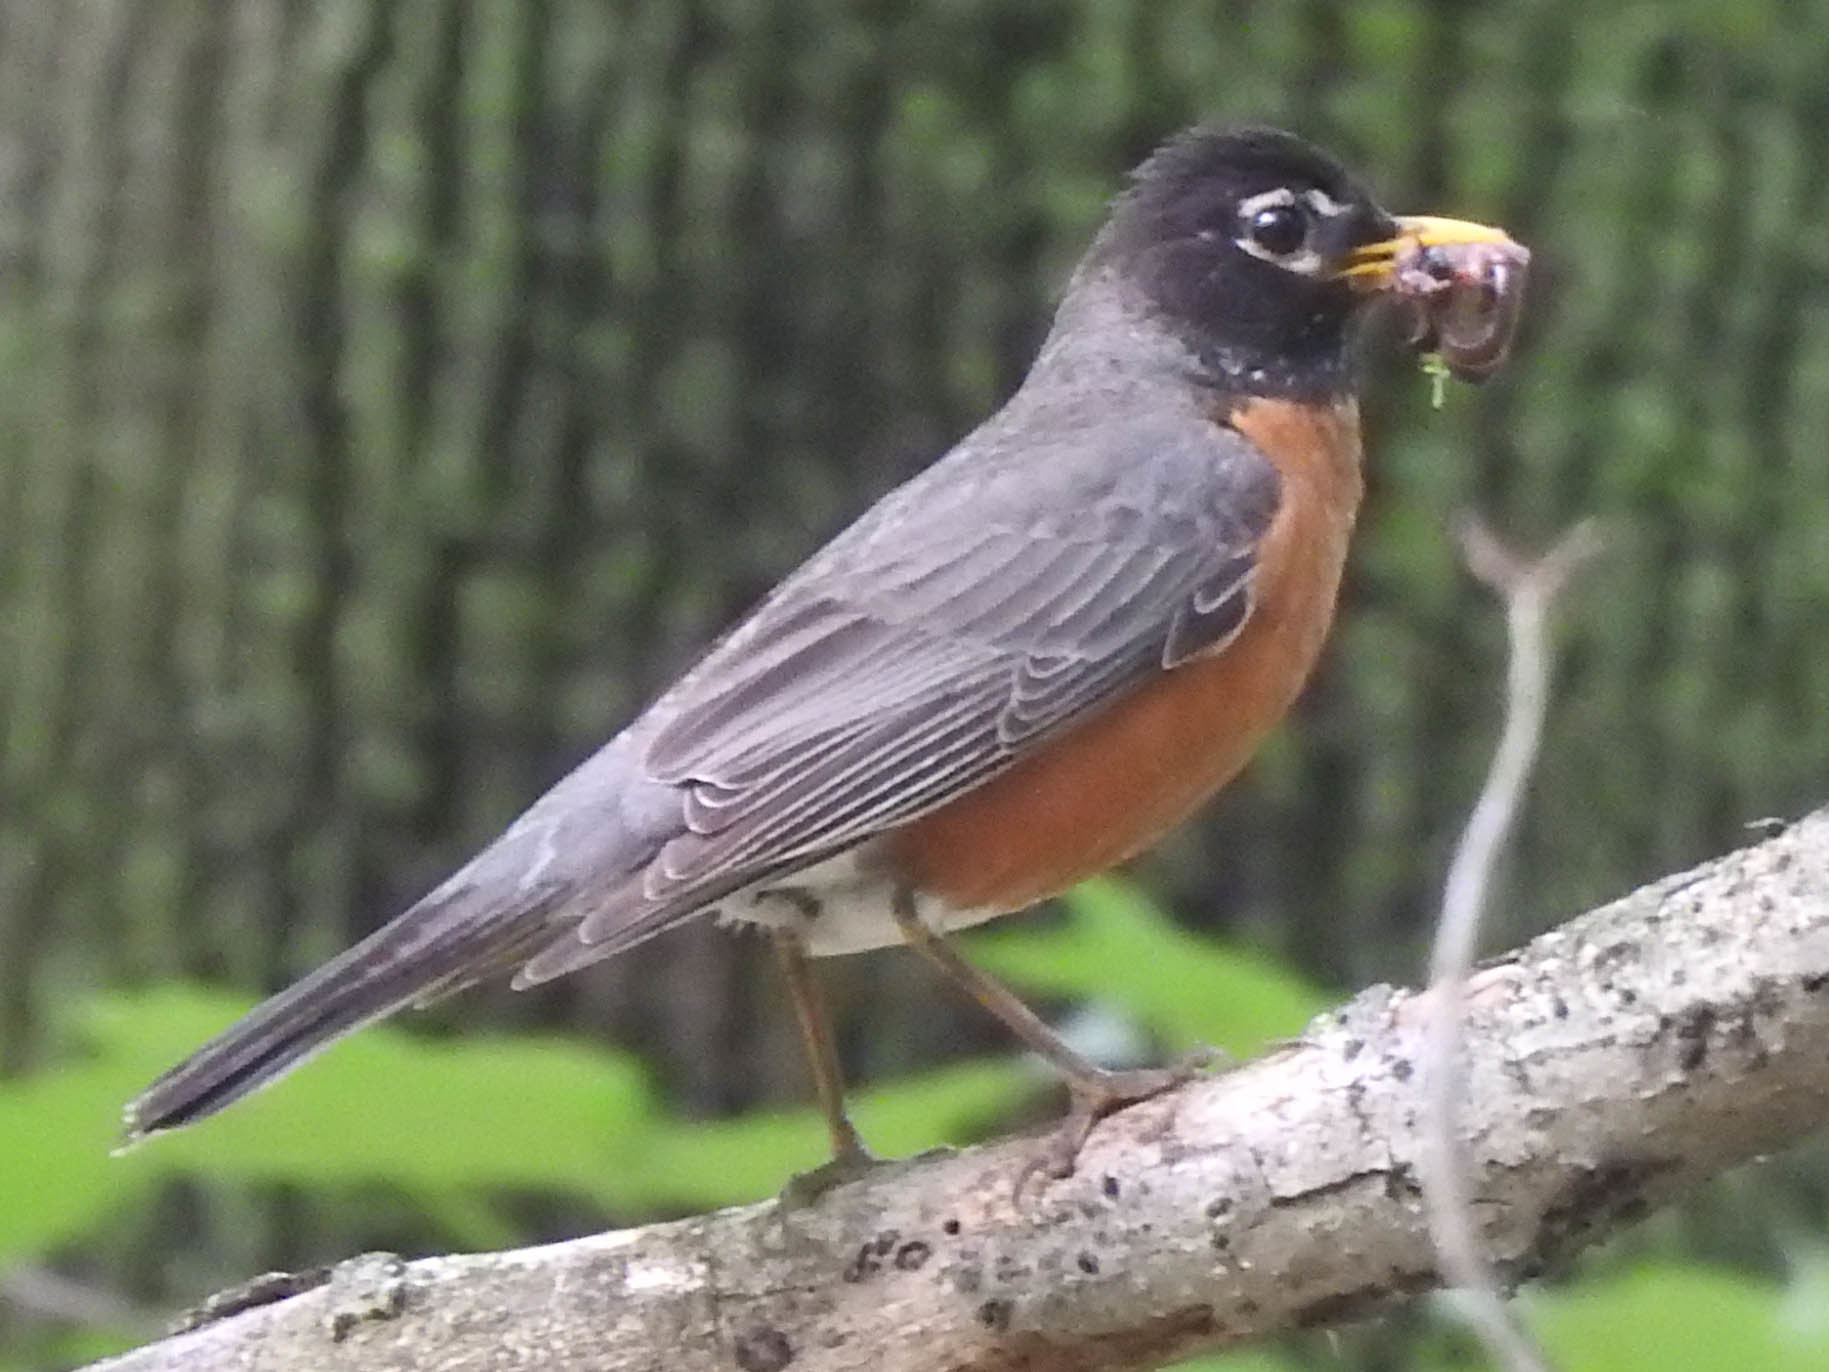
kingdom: Animalia
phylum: Chordata
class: Aves
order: Passeriformes
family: Turdidae
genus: Turdus
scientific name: Turdus migratorius
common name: American robin
